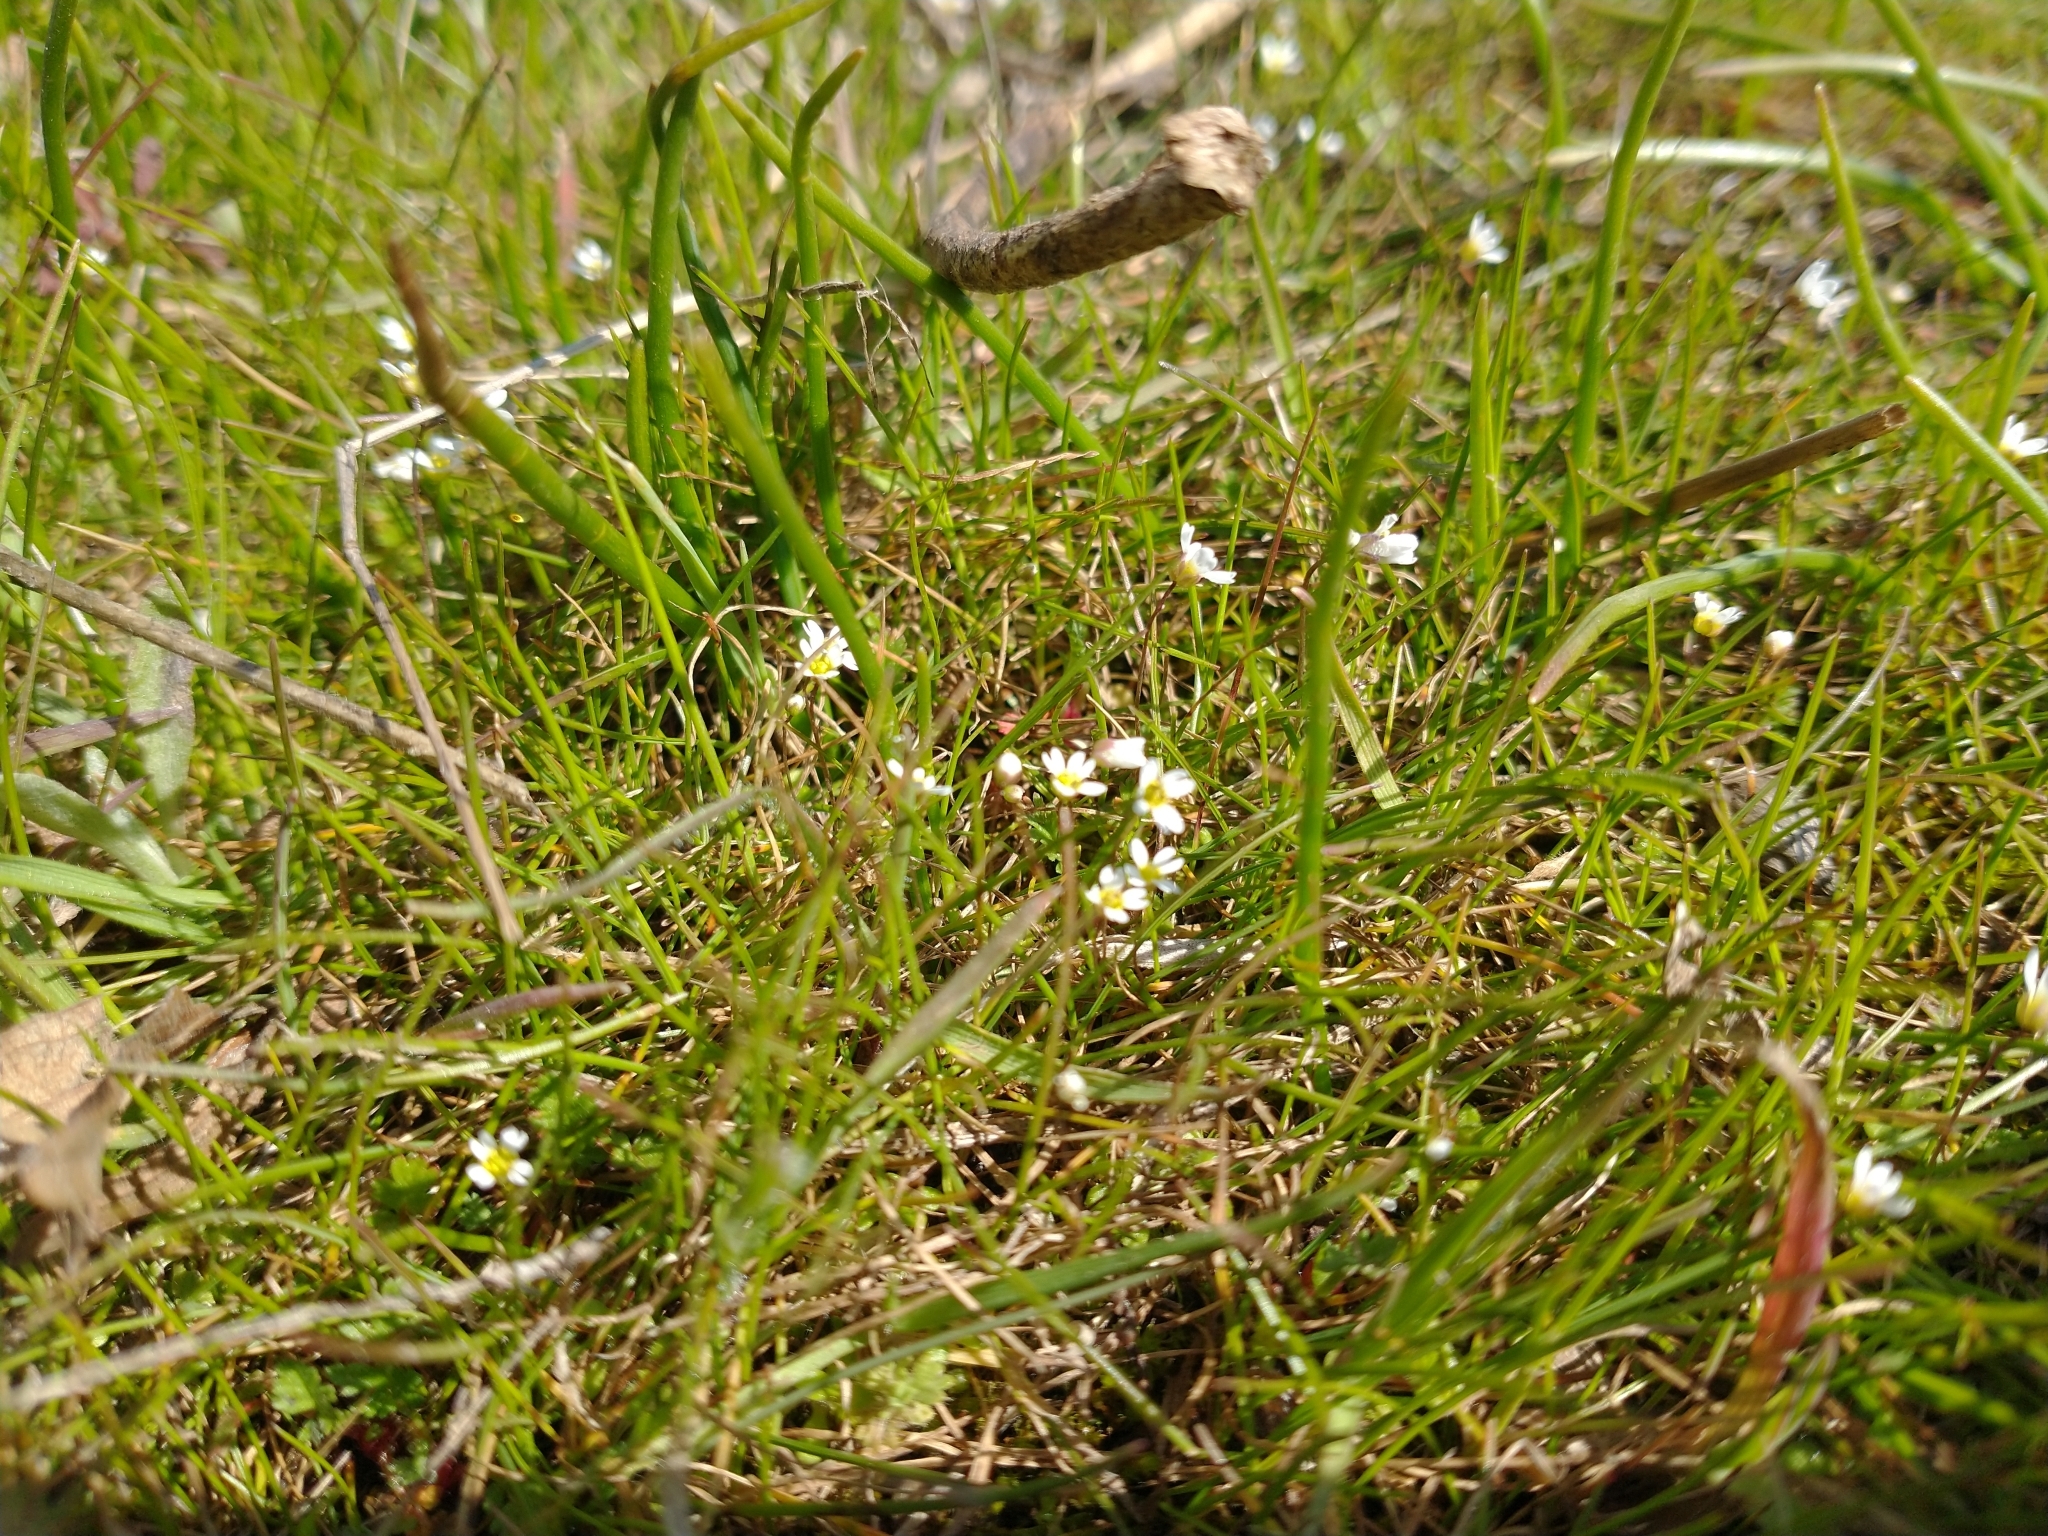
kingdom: Plantae
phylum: Tracheophyta
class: Magnoliopsida
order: Brassicales
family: Brassicaceae
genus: Draba
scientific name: Draba verna
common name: Spring draba
